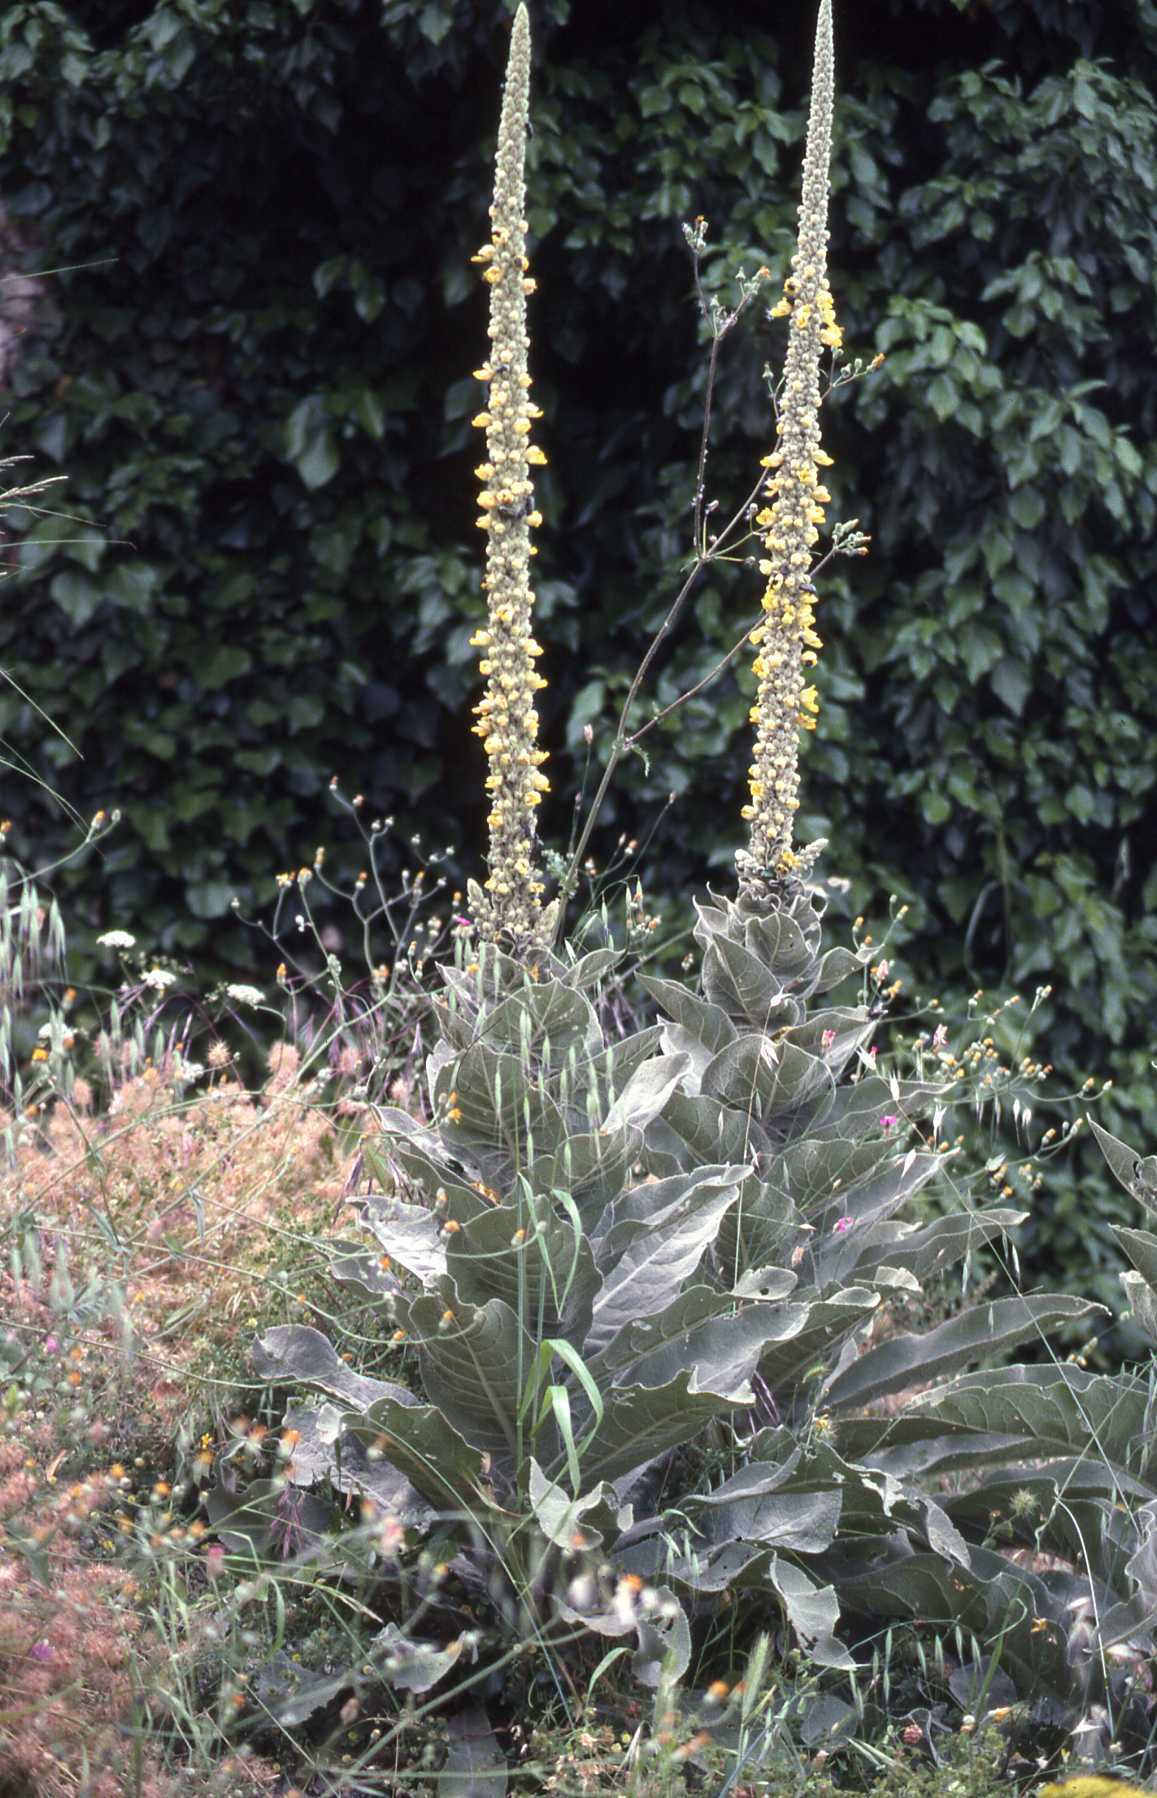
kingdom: Plantae
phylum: Tracheophyta
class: Magnoliopsida
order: Lamiales
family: Scrophulariaceae
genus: Verbascum
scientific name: Verbascum macrurum
